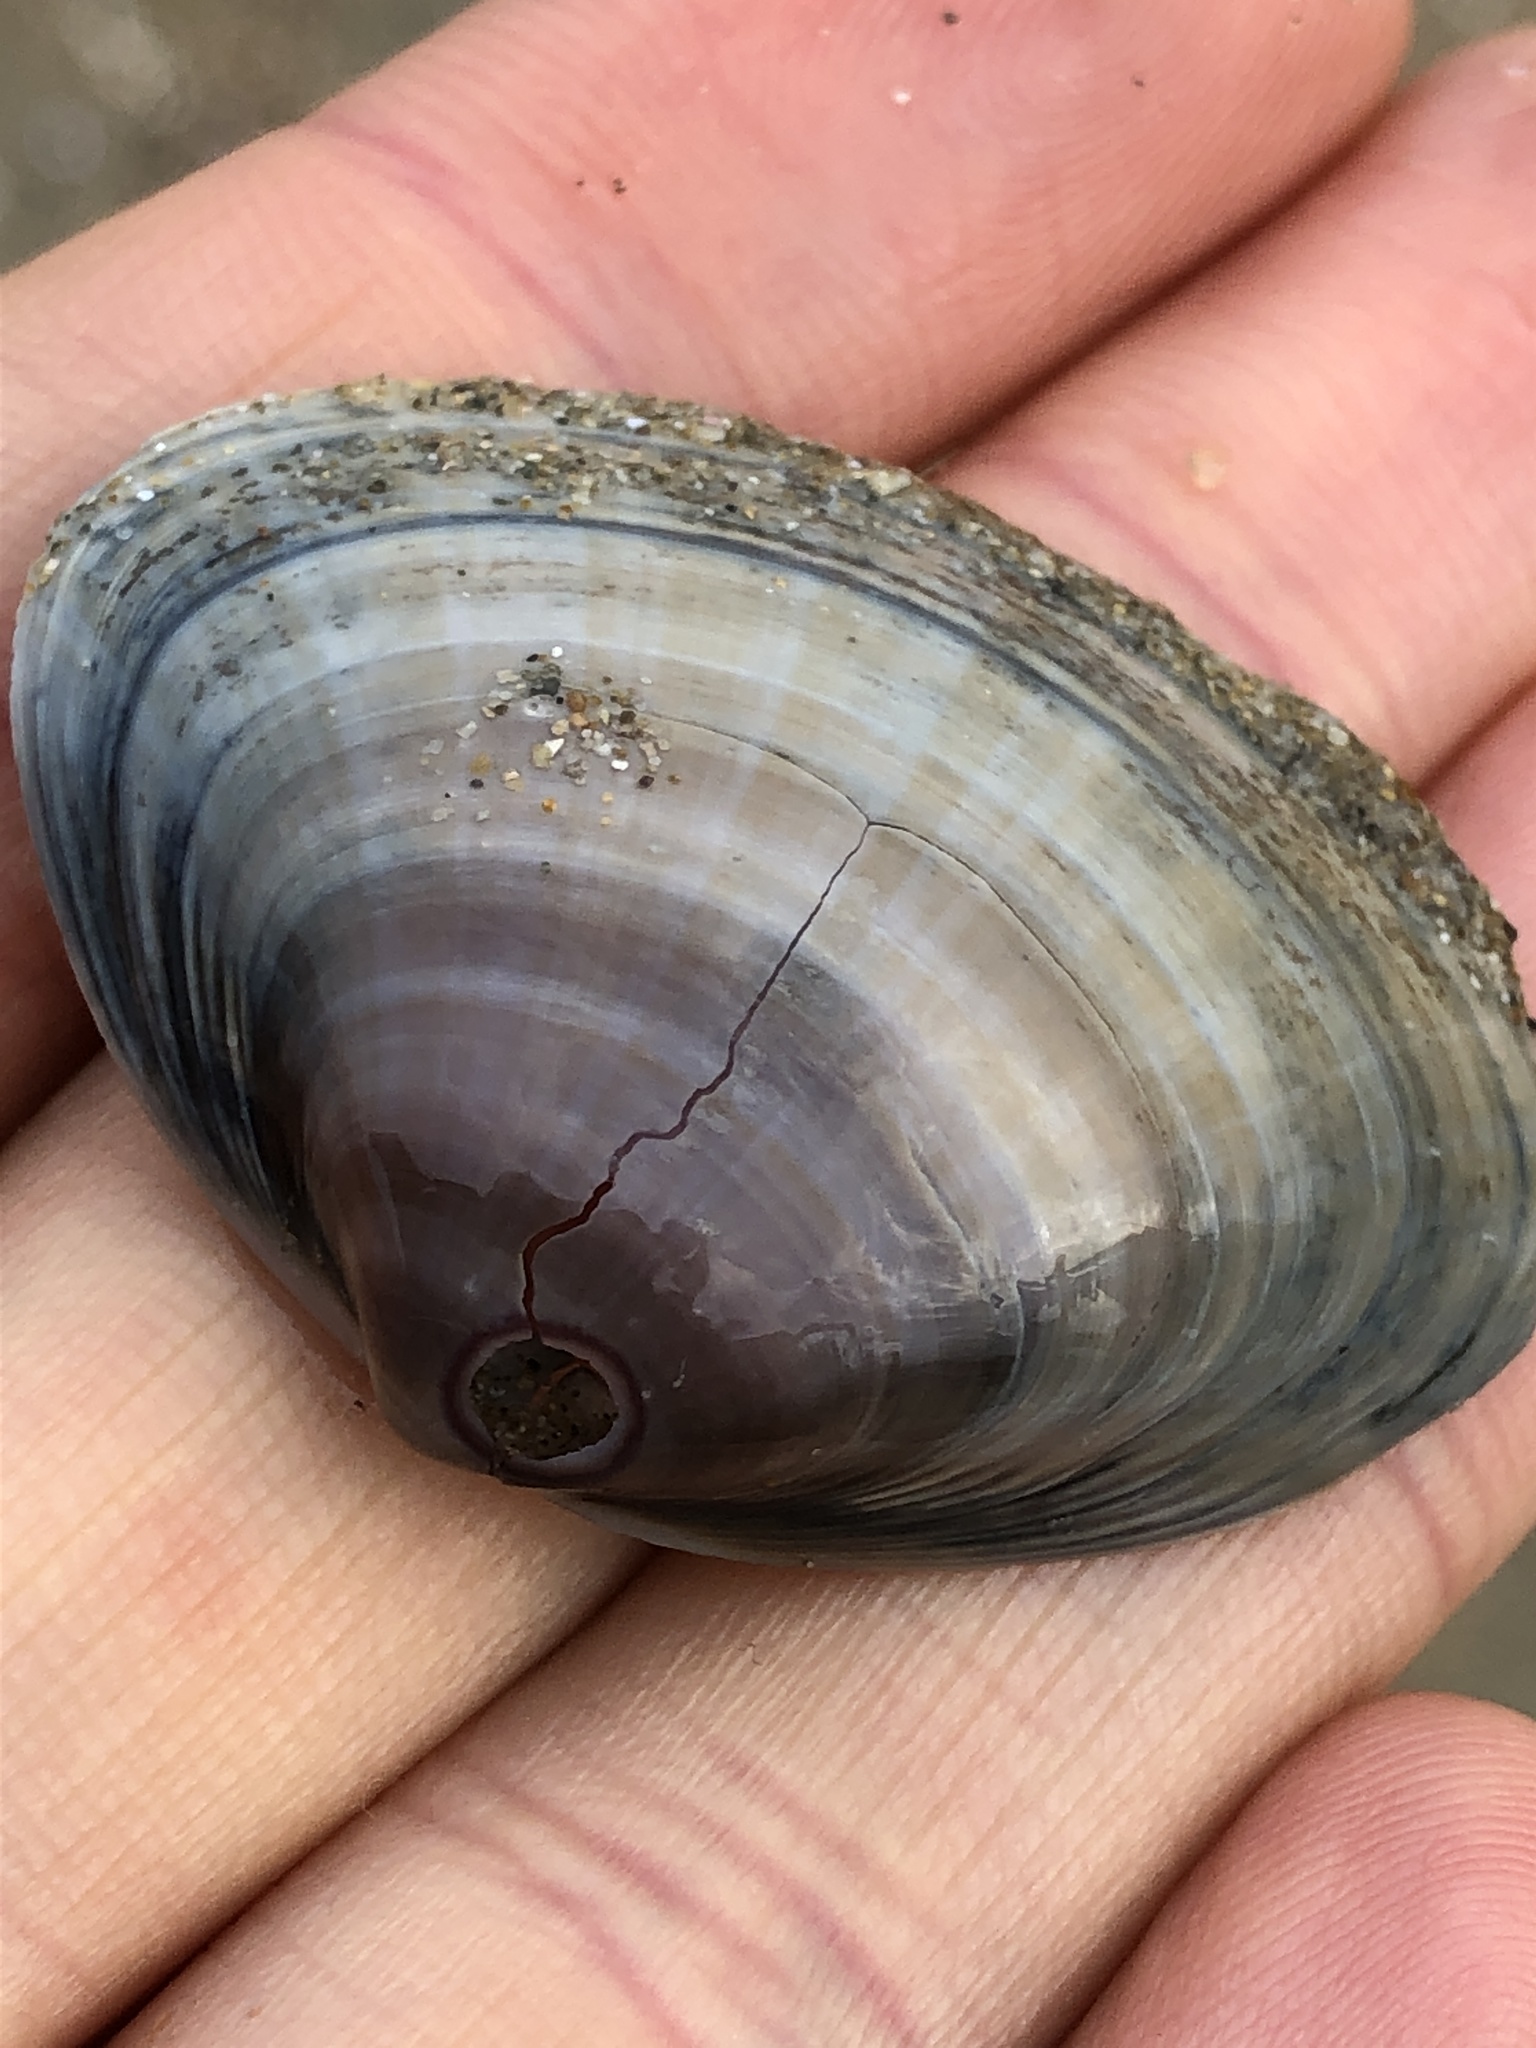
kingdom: Animalia
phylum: Mollusca
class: Bivalvia
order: Venerida
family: Mactridae
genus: Mactra
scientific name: Mactra chinensis
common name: Chinese surf clam
